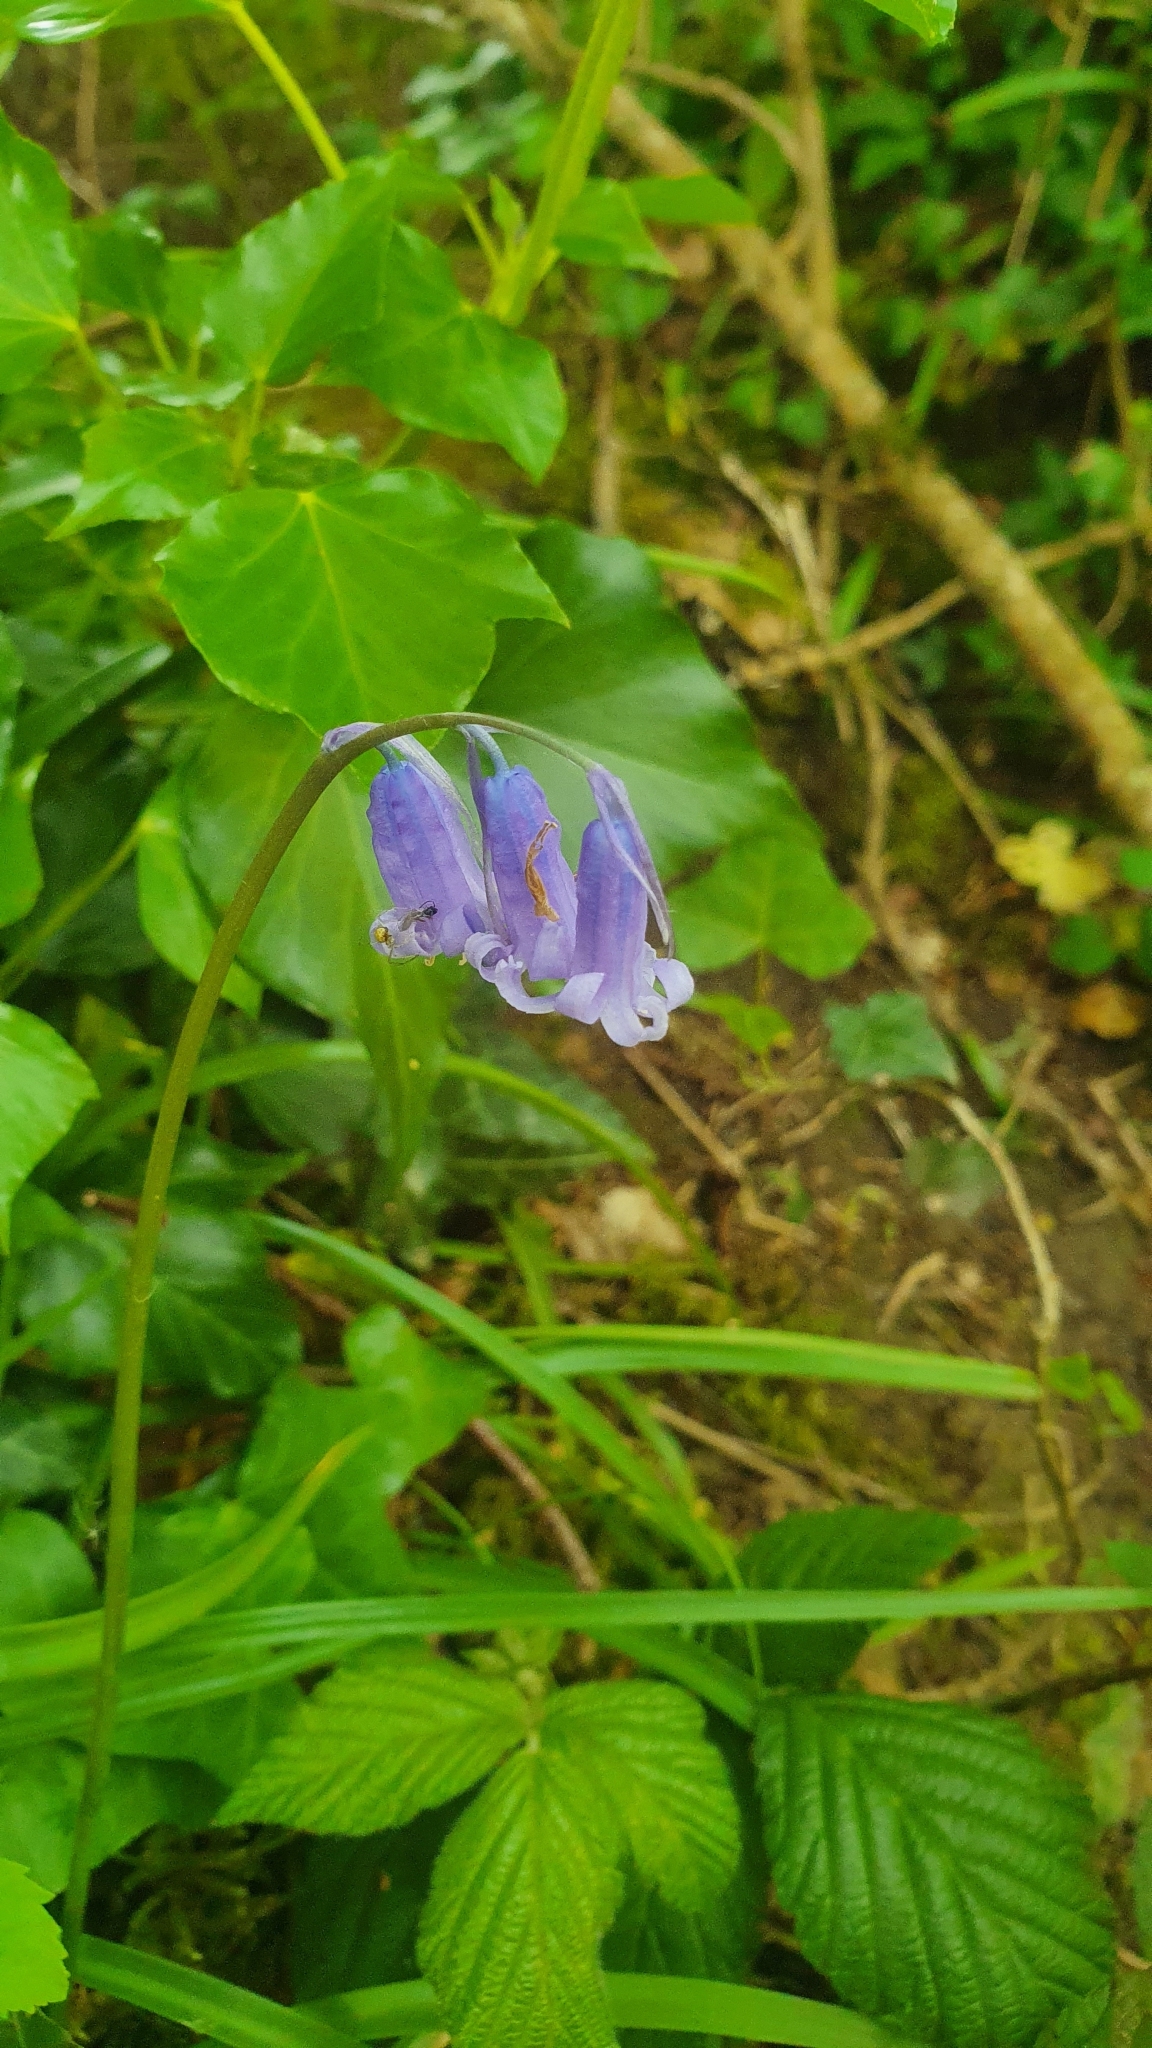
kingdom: Plantae
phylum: Tracheophyta
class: Liliopsida
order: Asparagales
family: Asparagaceae
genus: Hyacinthoides
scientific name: Hyacinthoides non-scripta
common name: Bluebell
